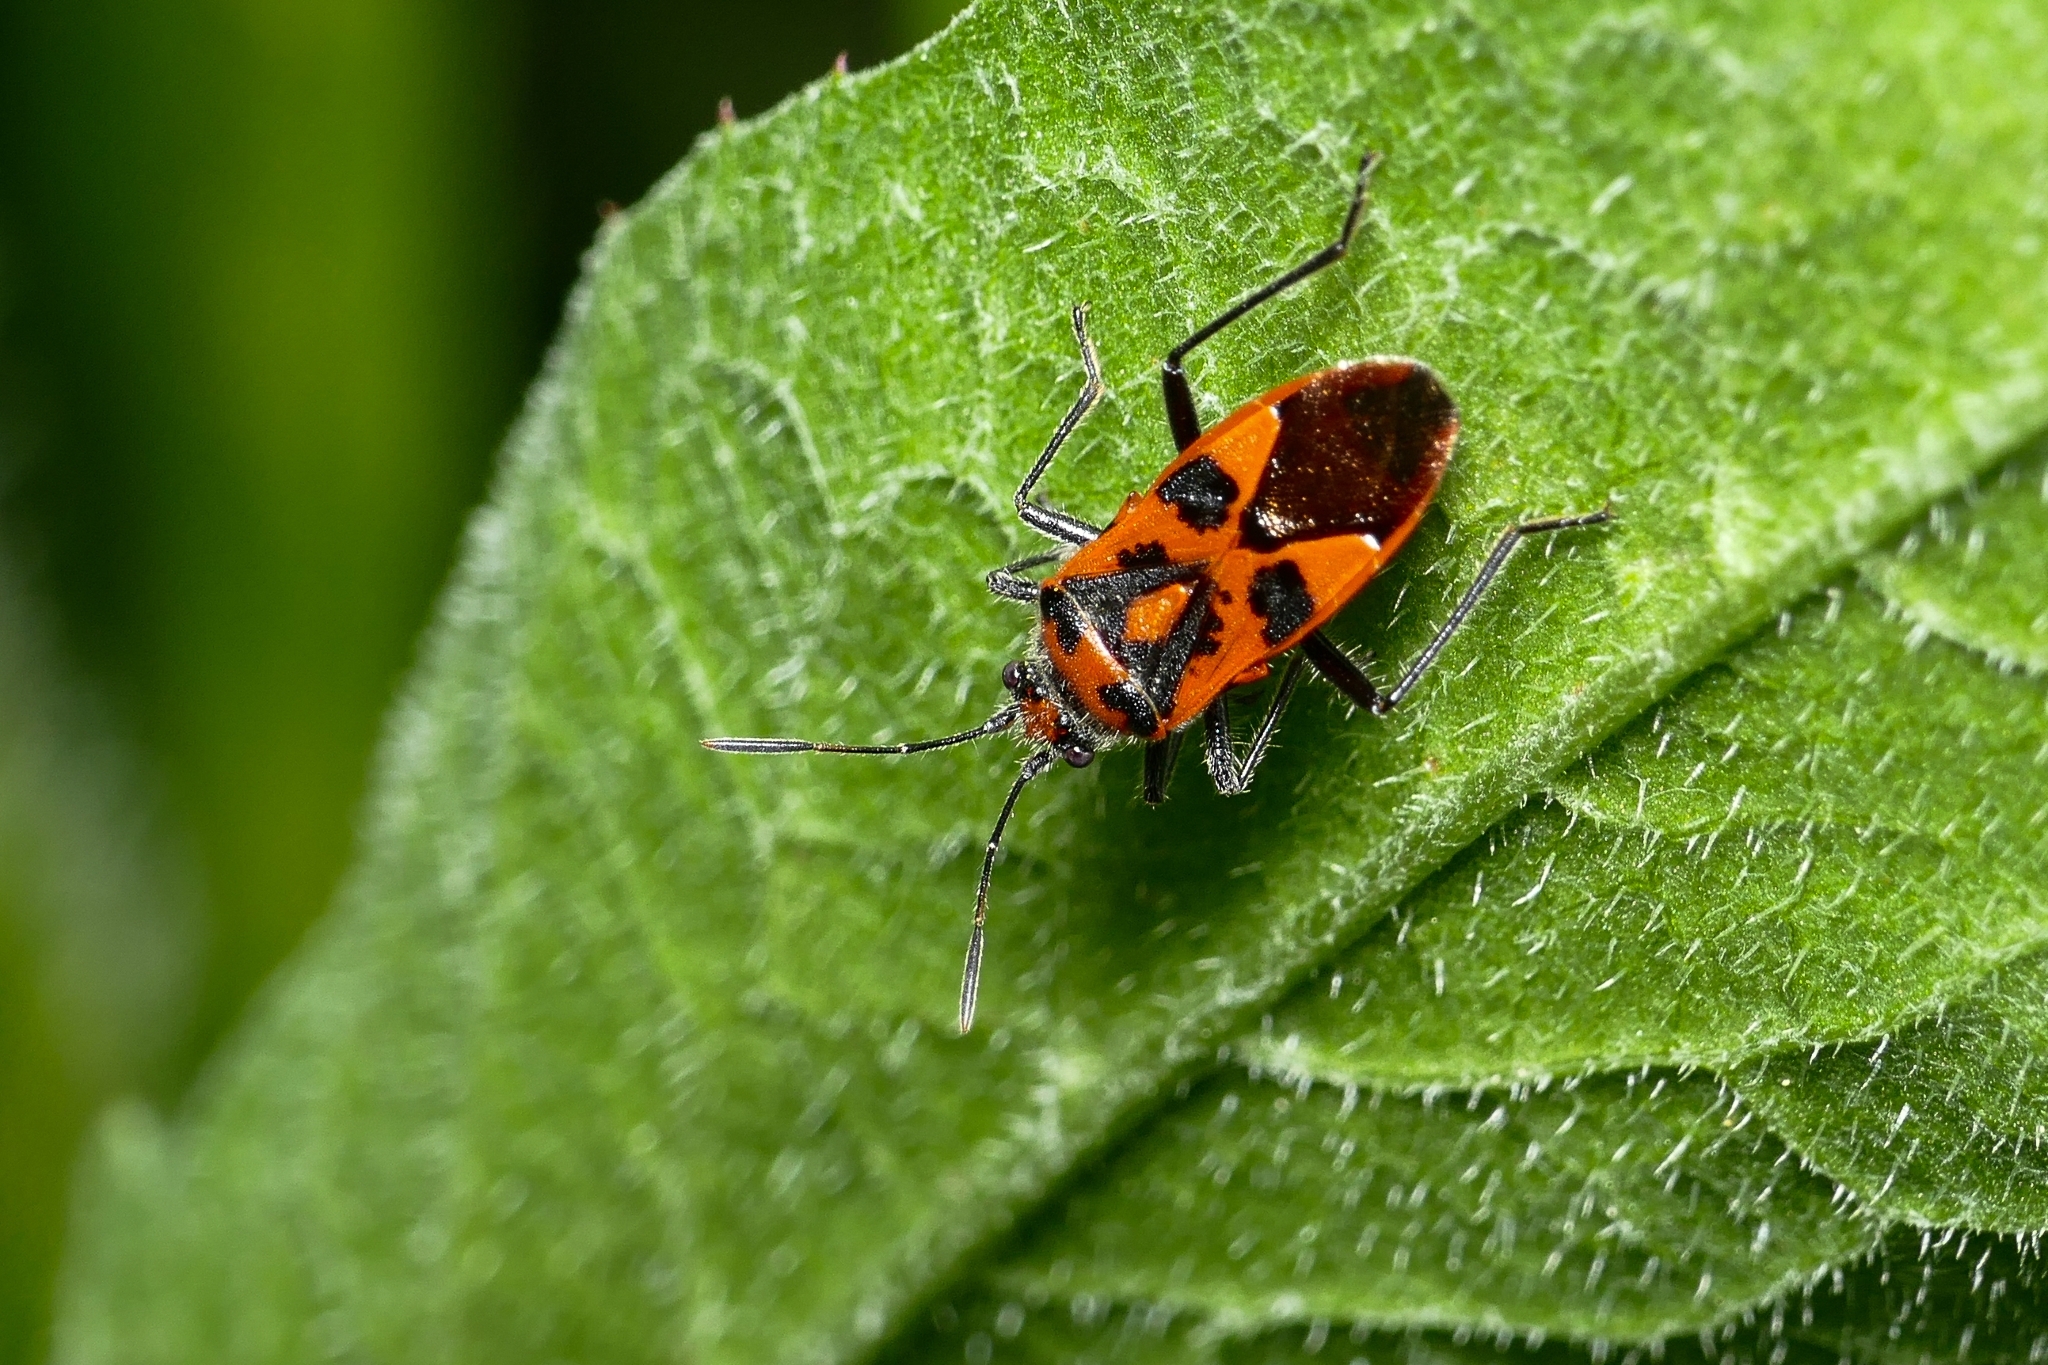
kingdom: Animalia
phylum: Arthropoda
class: Insecta
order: Hemiptera
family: Rhopalidae
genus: Corizus
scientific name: Corizus hyoscyami
